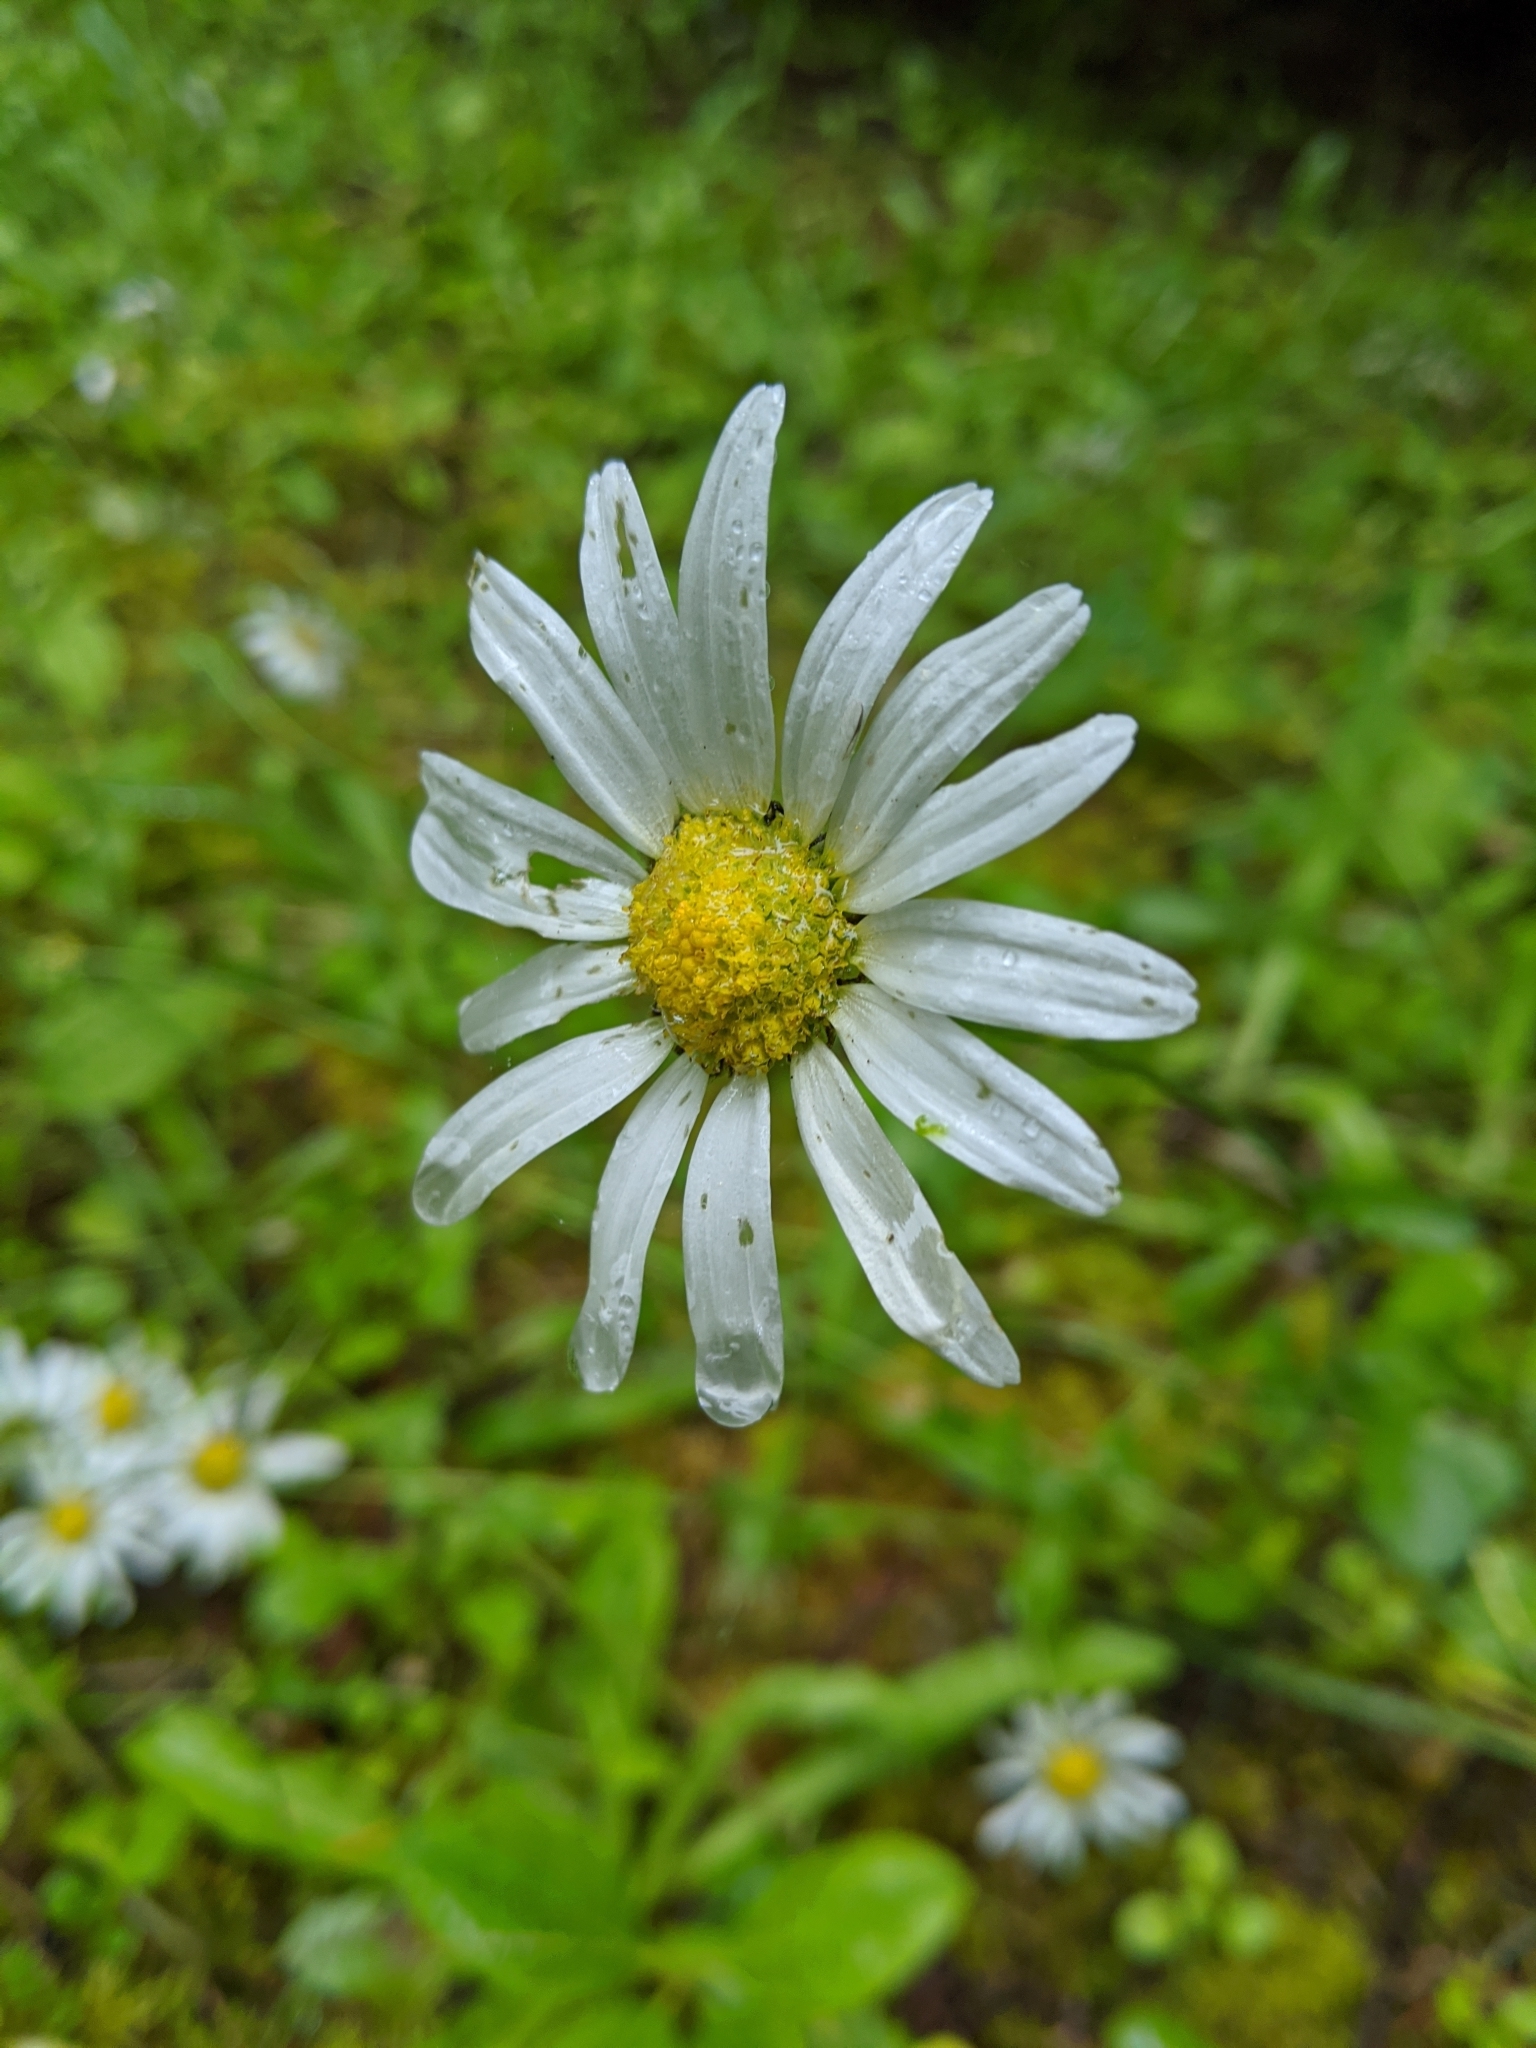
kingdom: Plantae
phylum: Tracheophyta
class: Magnoliopsida
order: Asterales
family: Asteraceae
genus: Leucanthemum
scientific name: Leucanthemum vulgare
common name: Oxeye daisy
